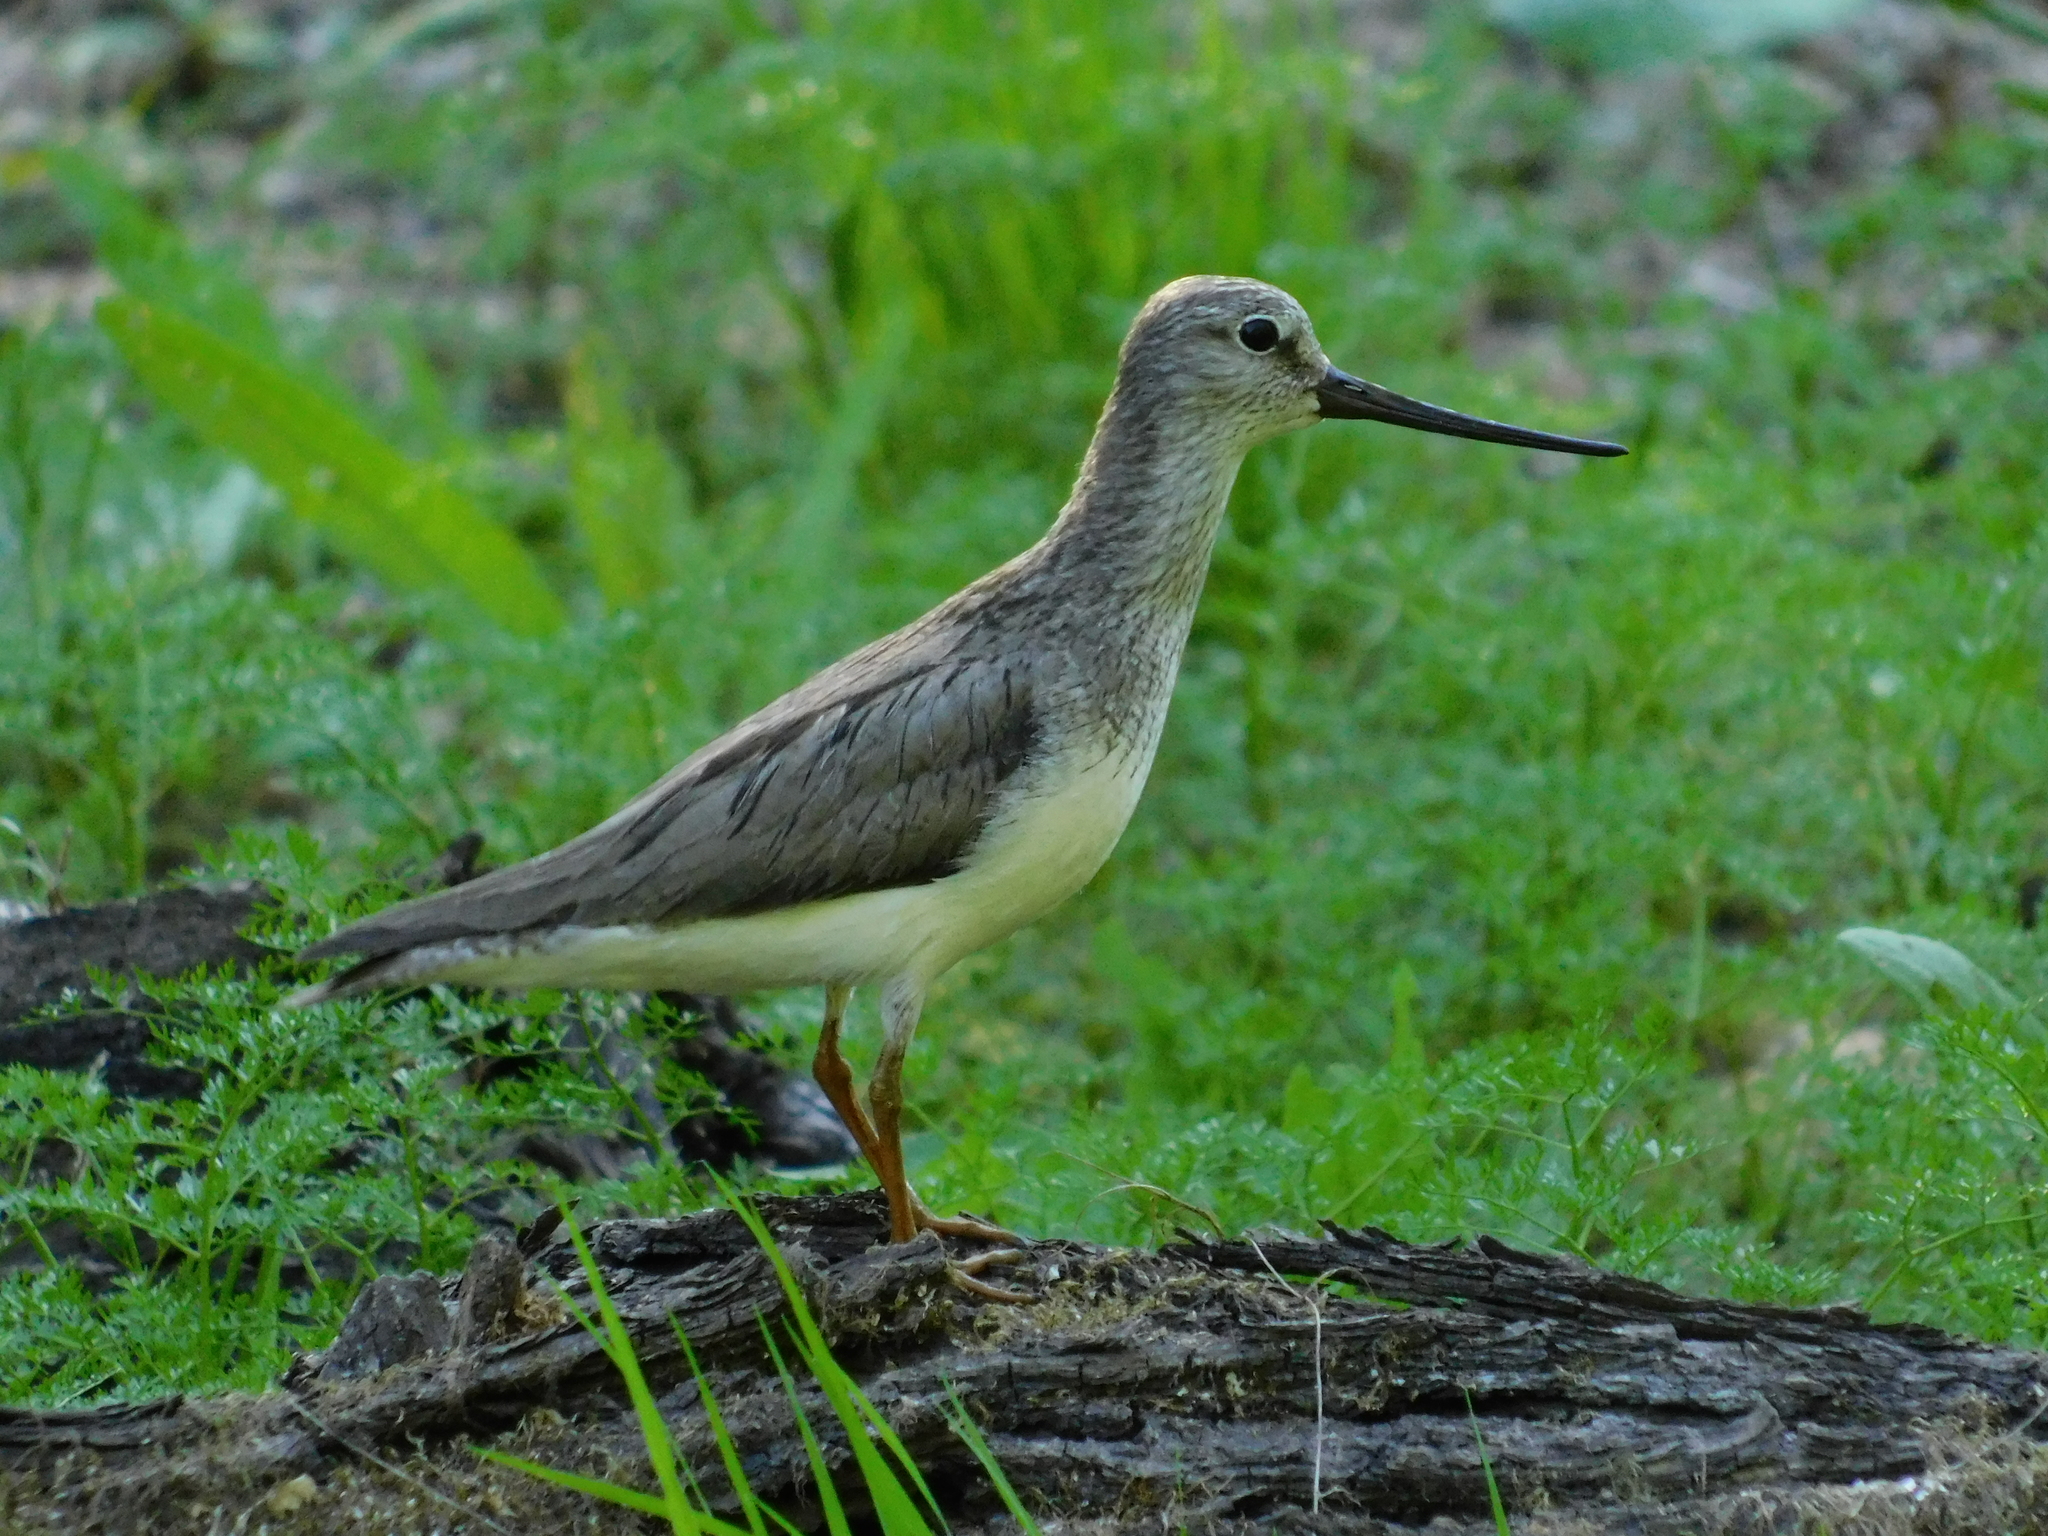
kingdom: Animalia
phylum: Chordata
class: Aves
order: Charadriiformes
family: Scolopacidae
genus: Xenus
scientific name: Xenus cinereus
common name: Terek sandpiper
